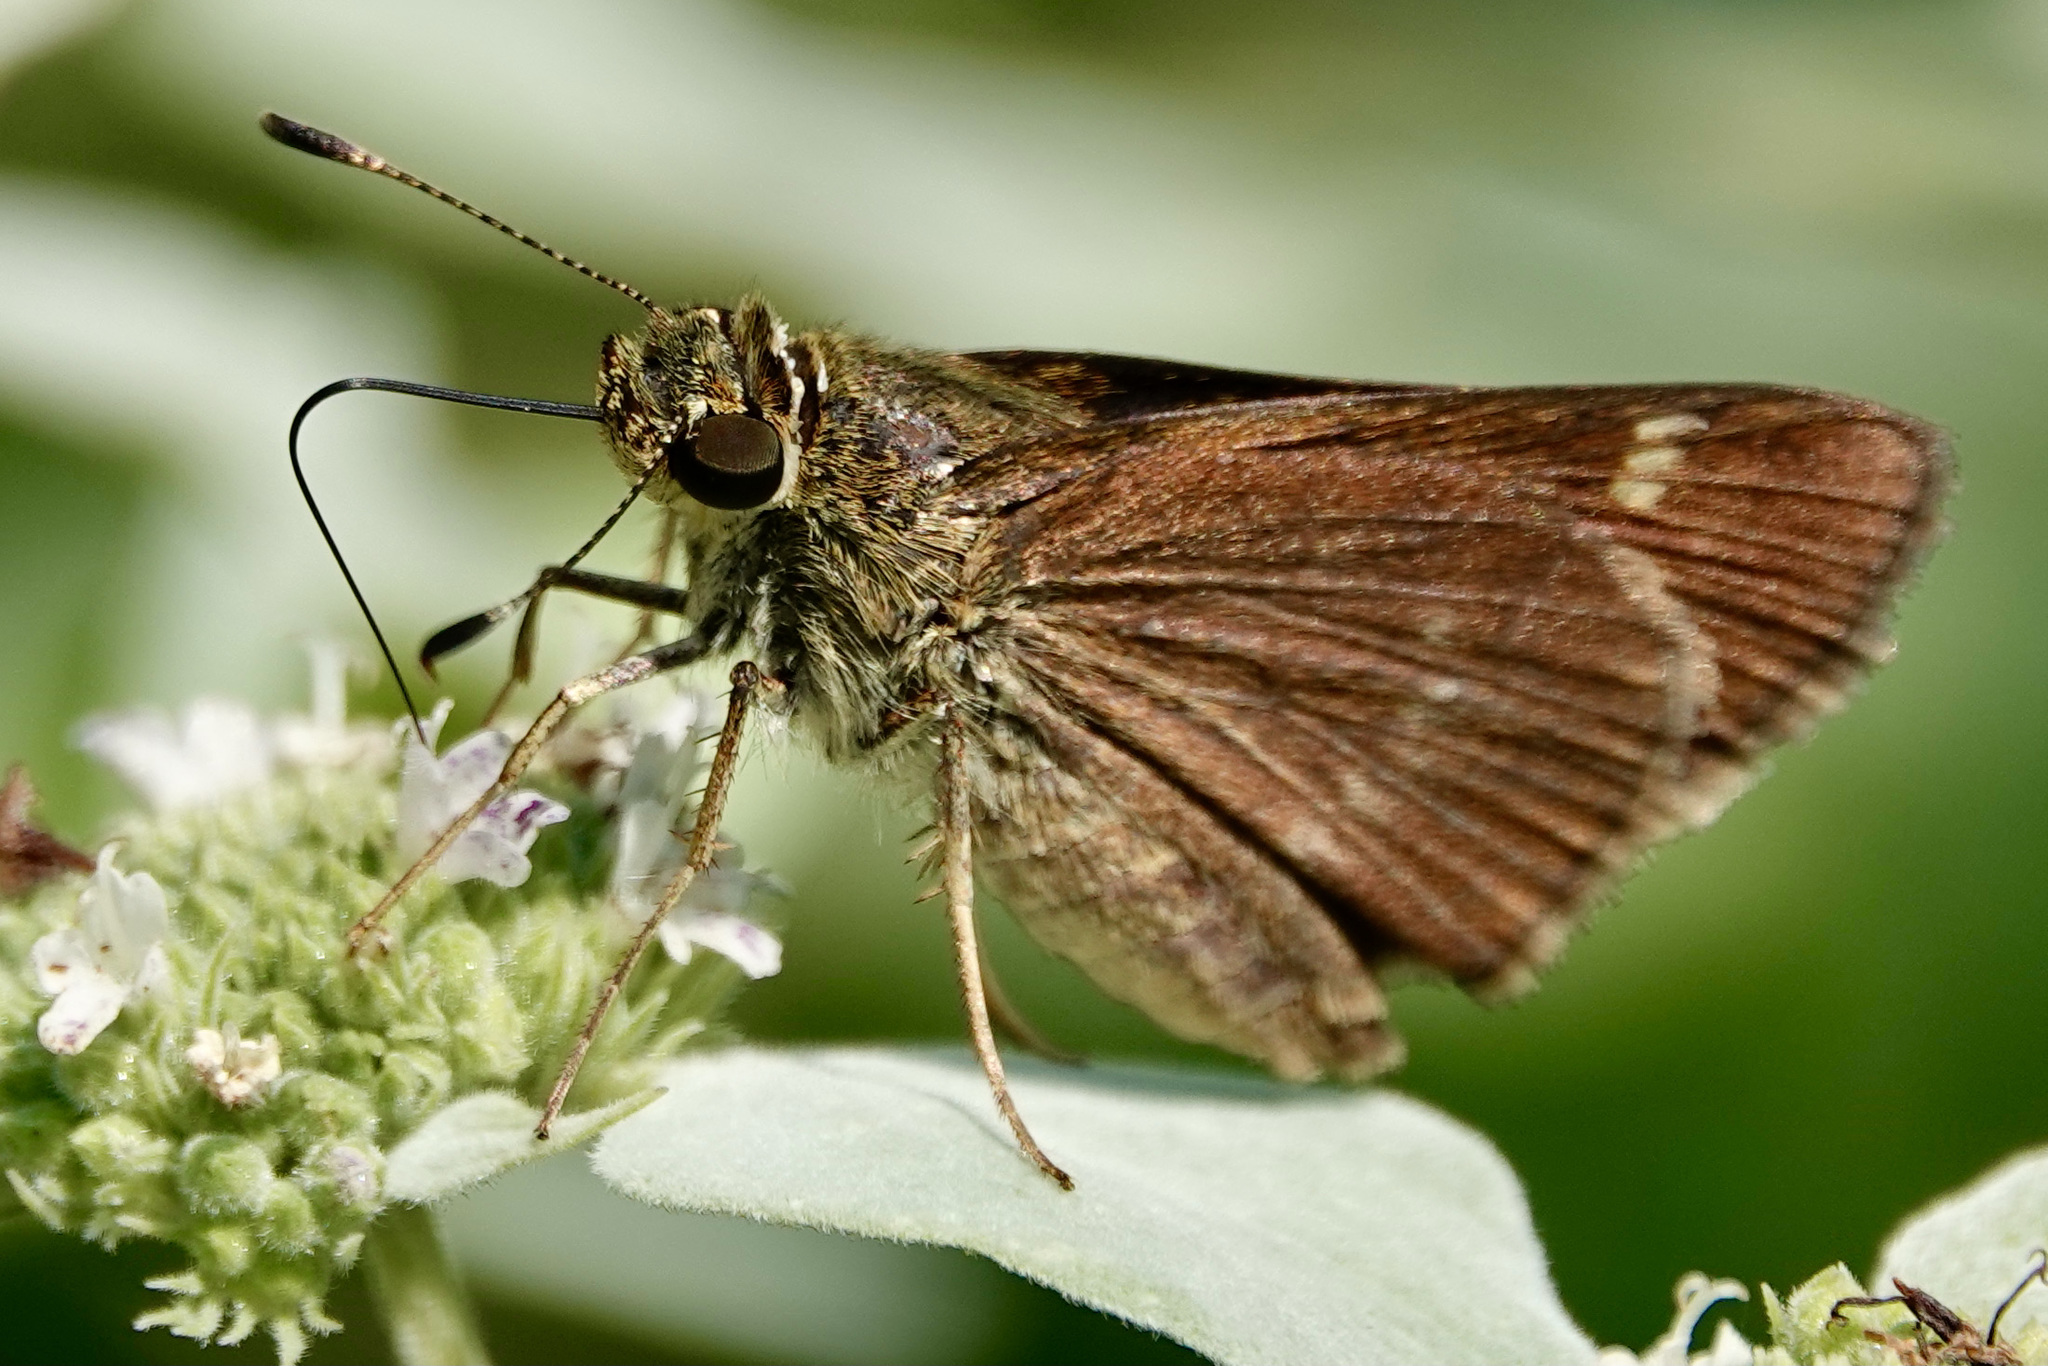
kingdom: Animalia
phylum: Arthropoda
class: Insecta
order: Lepidoptera
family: Hesperiidae
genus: Vernia
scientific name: Vernia verna
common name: Little glassywing
